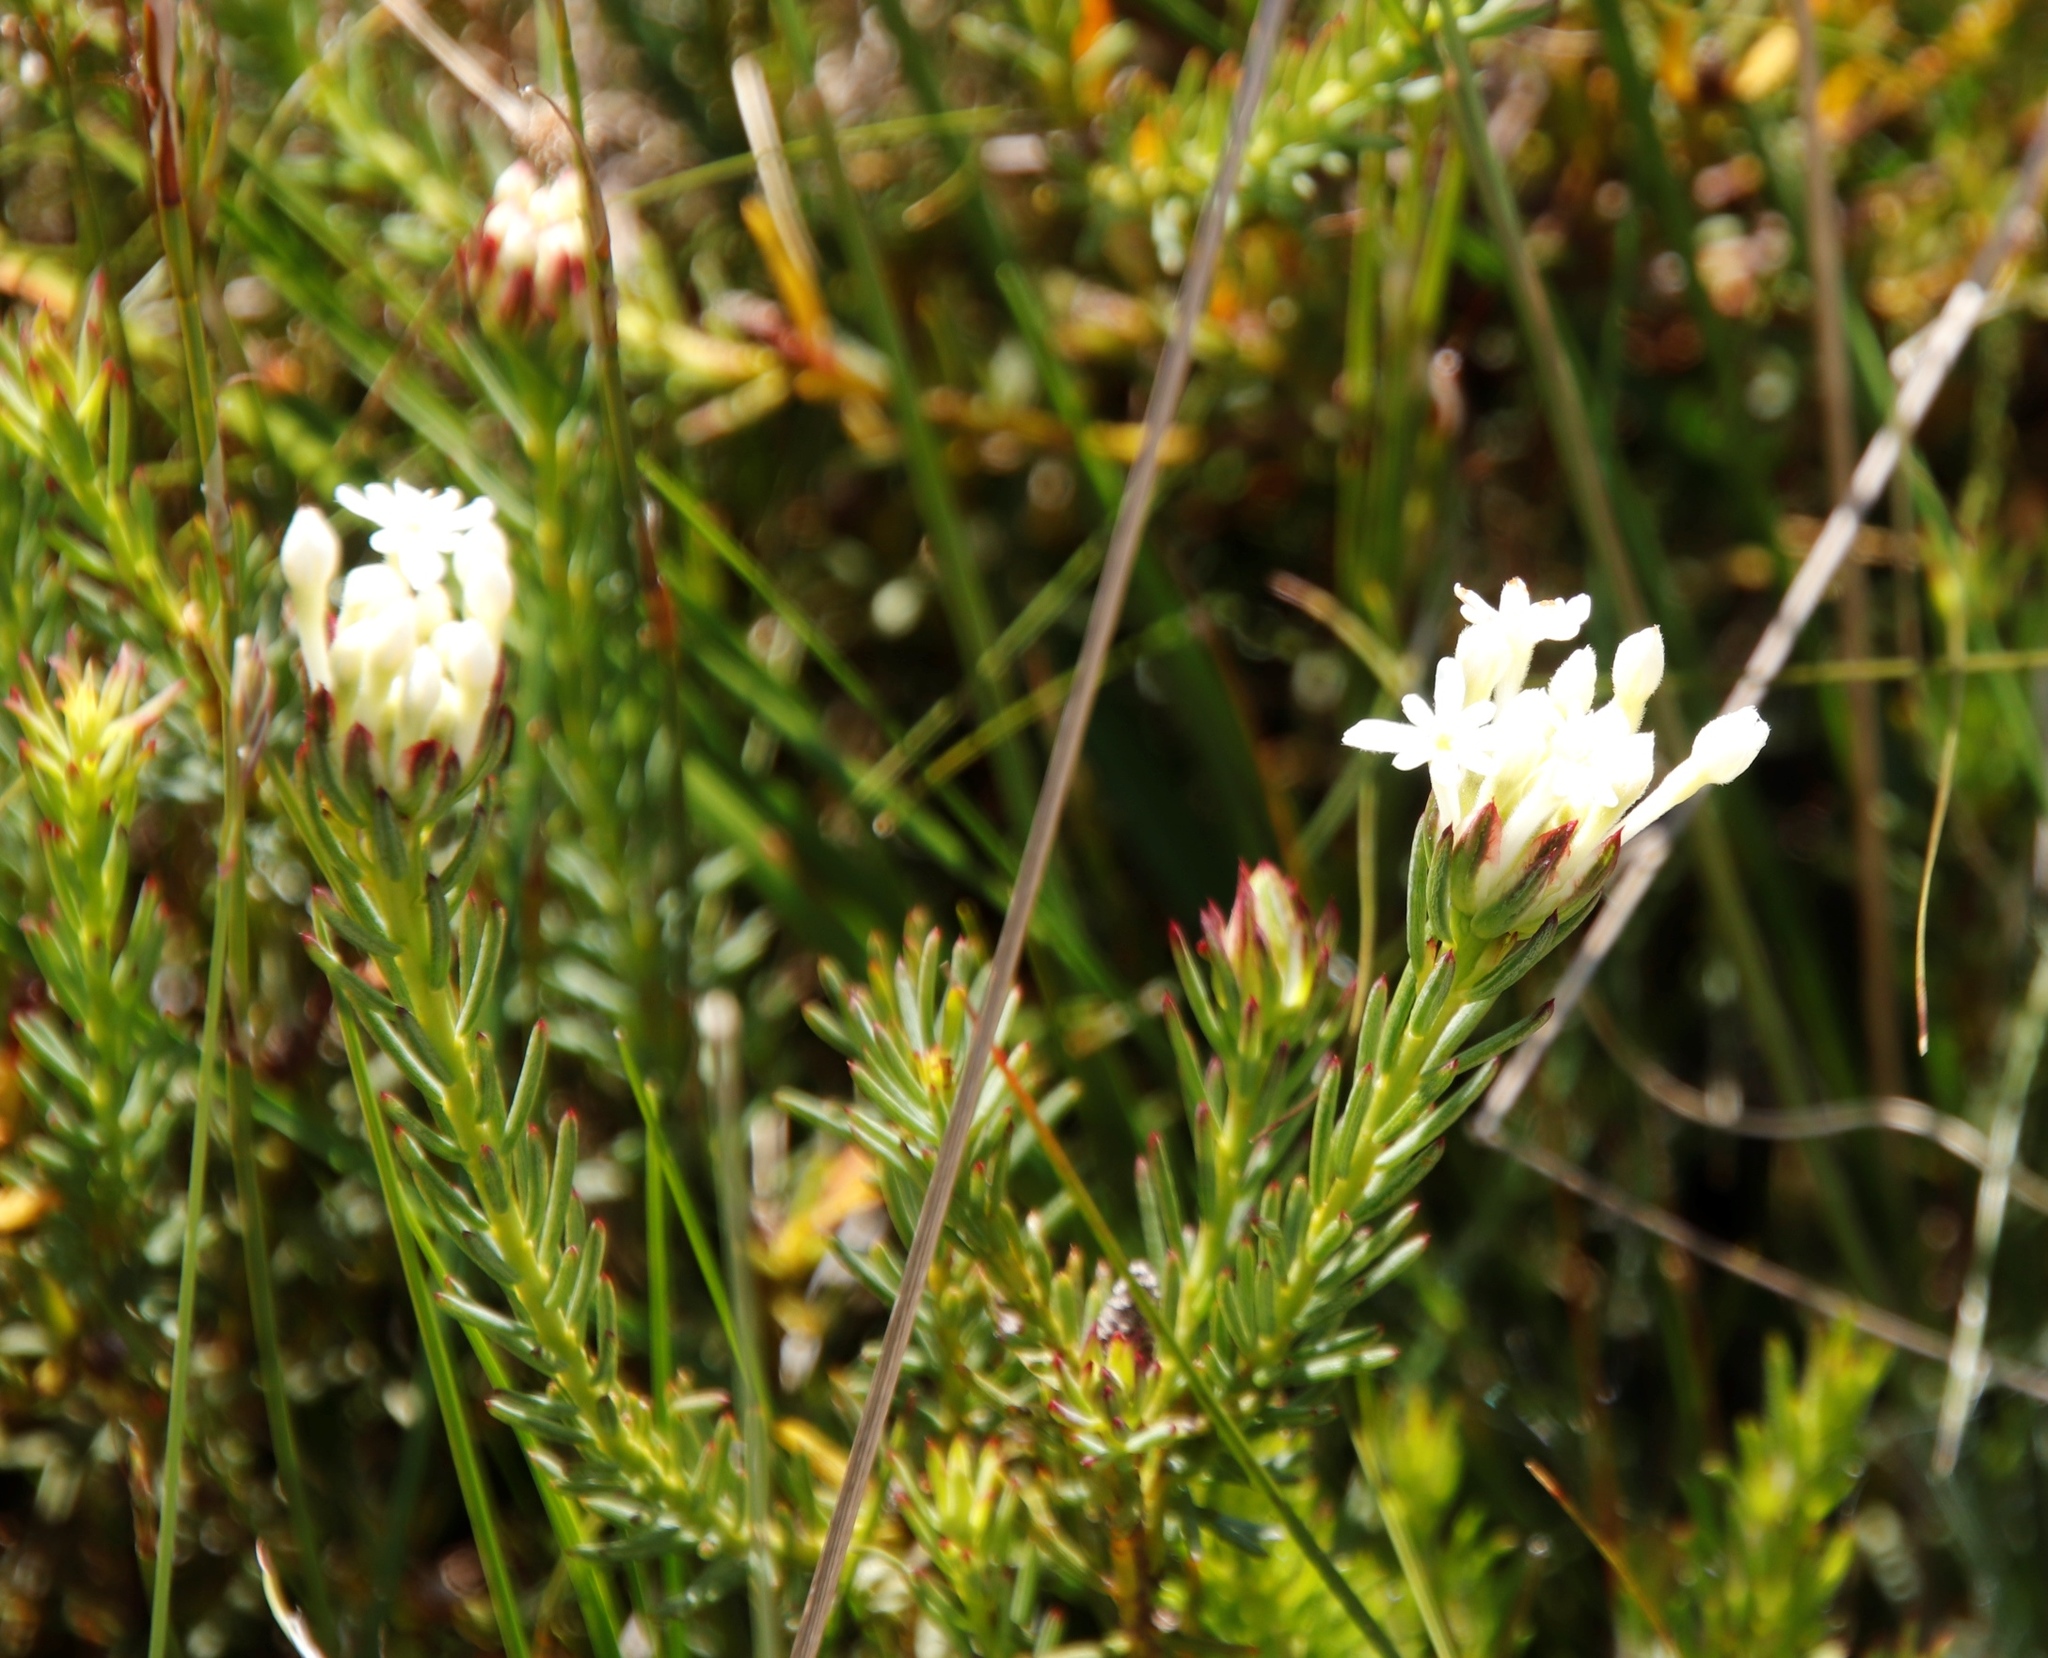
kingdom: Plantae
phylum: Tracheophyta
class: Magnoliopsida
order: Malvales
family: Thymelaeaceae
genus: Gnidia
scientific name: Gnidia pinifolia
